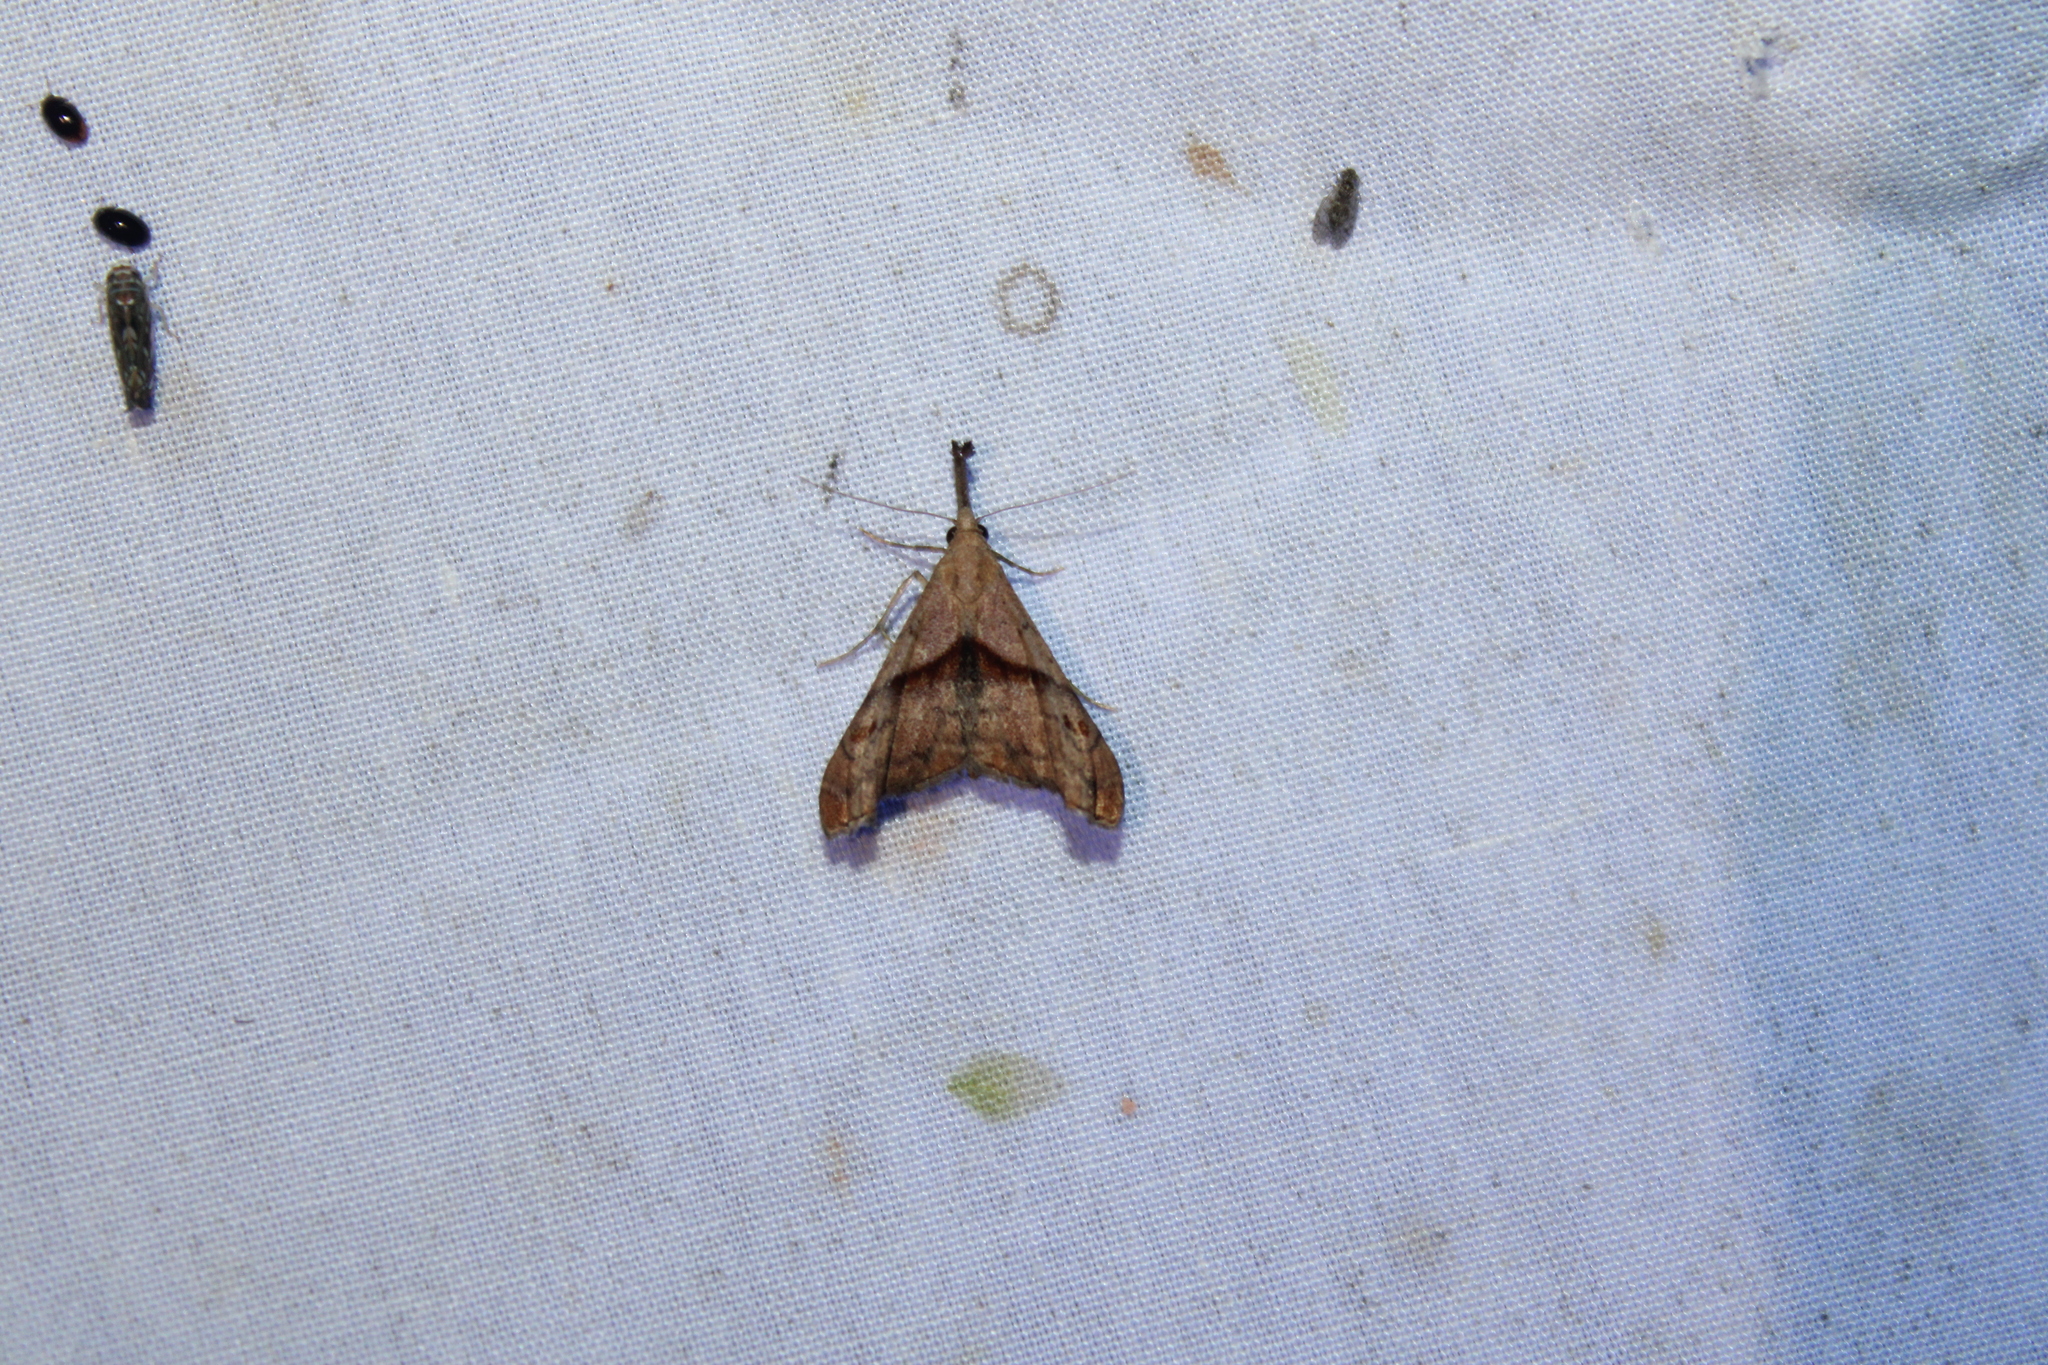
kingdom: Animalia
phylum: Arthropoda
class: Insecta
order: Lepidoptera
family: Erebidae
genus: Palthis
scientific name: Palthis angulalis
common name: Dark-spotted palthis moth
